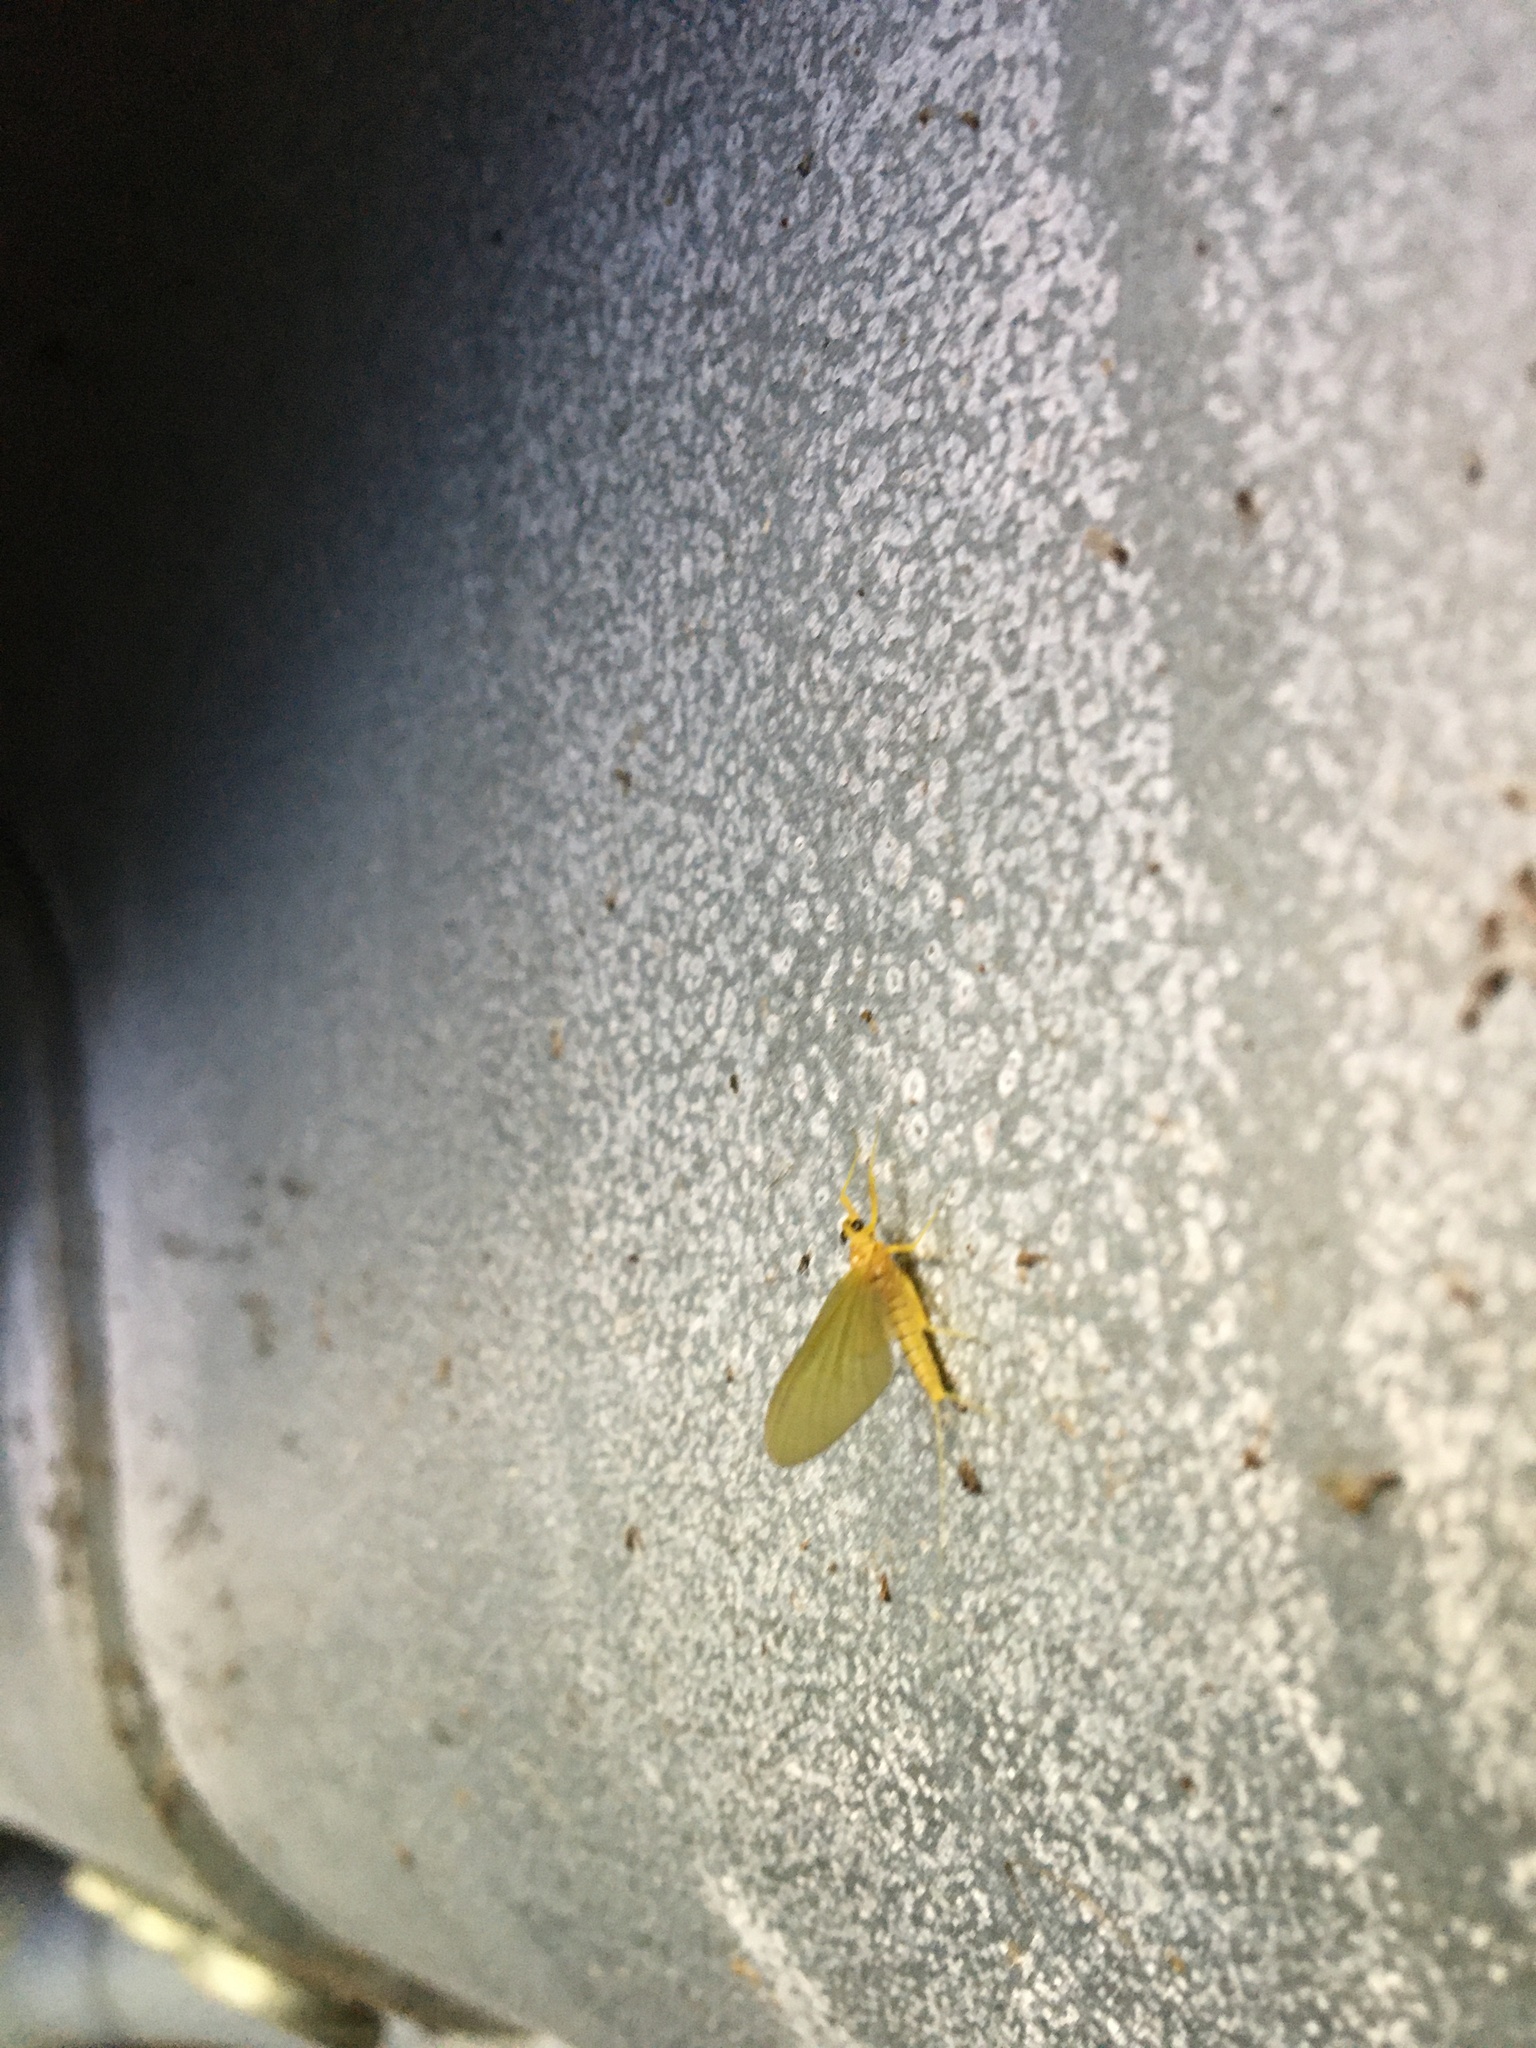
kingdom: Animalia
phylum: Arthropoda
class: Insecta
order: Ephemeroptera
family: Heptageniidae
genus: Heptagenia
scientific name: Heptagenia sulphurea
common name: Yellow may dun
